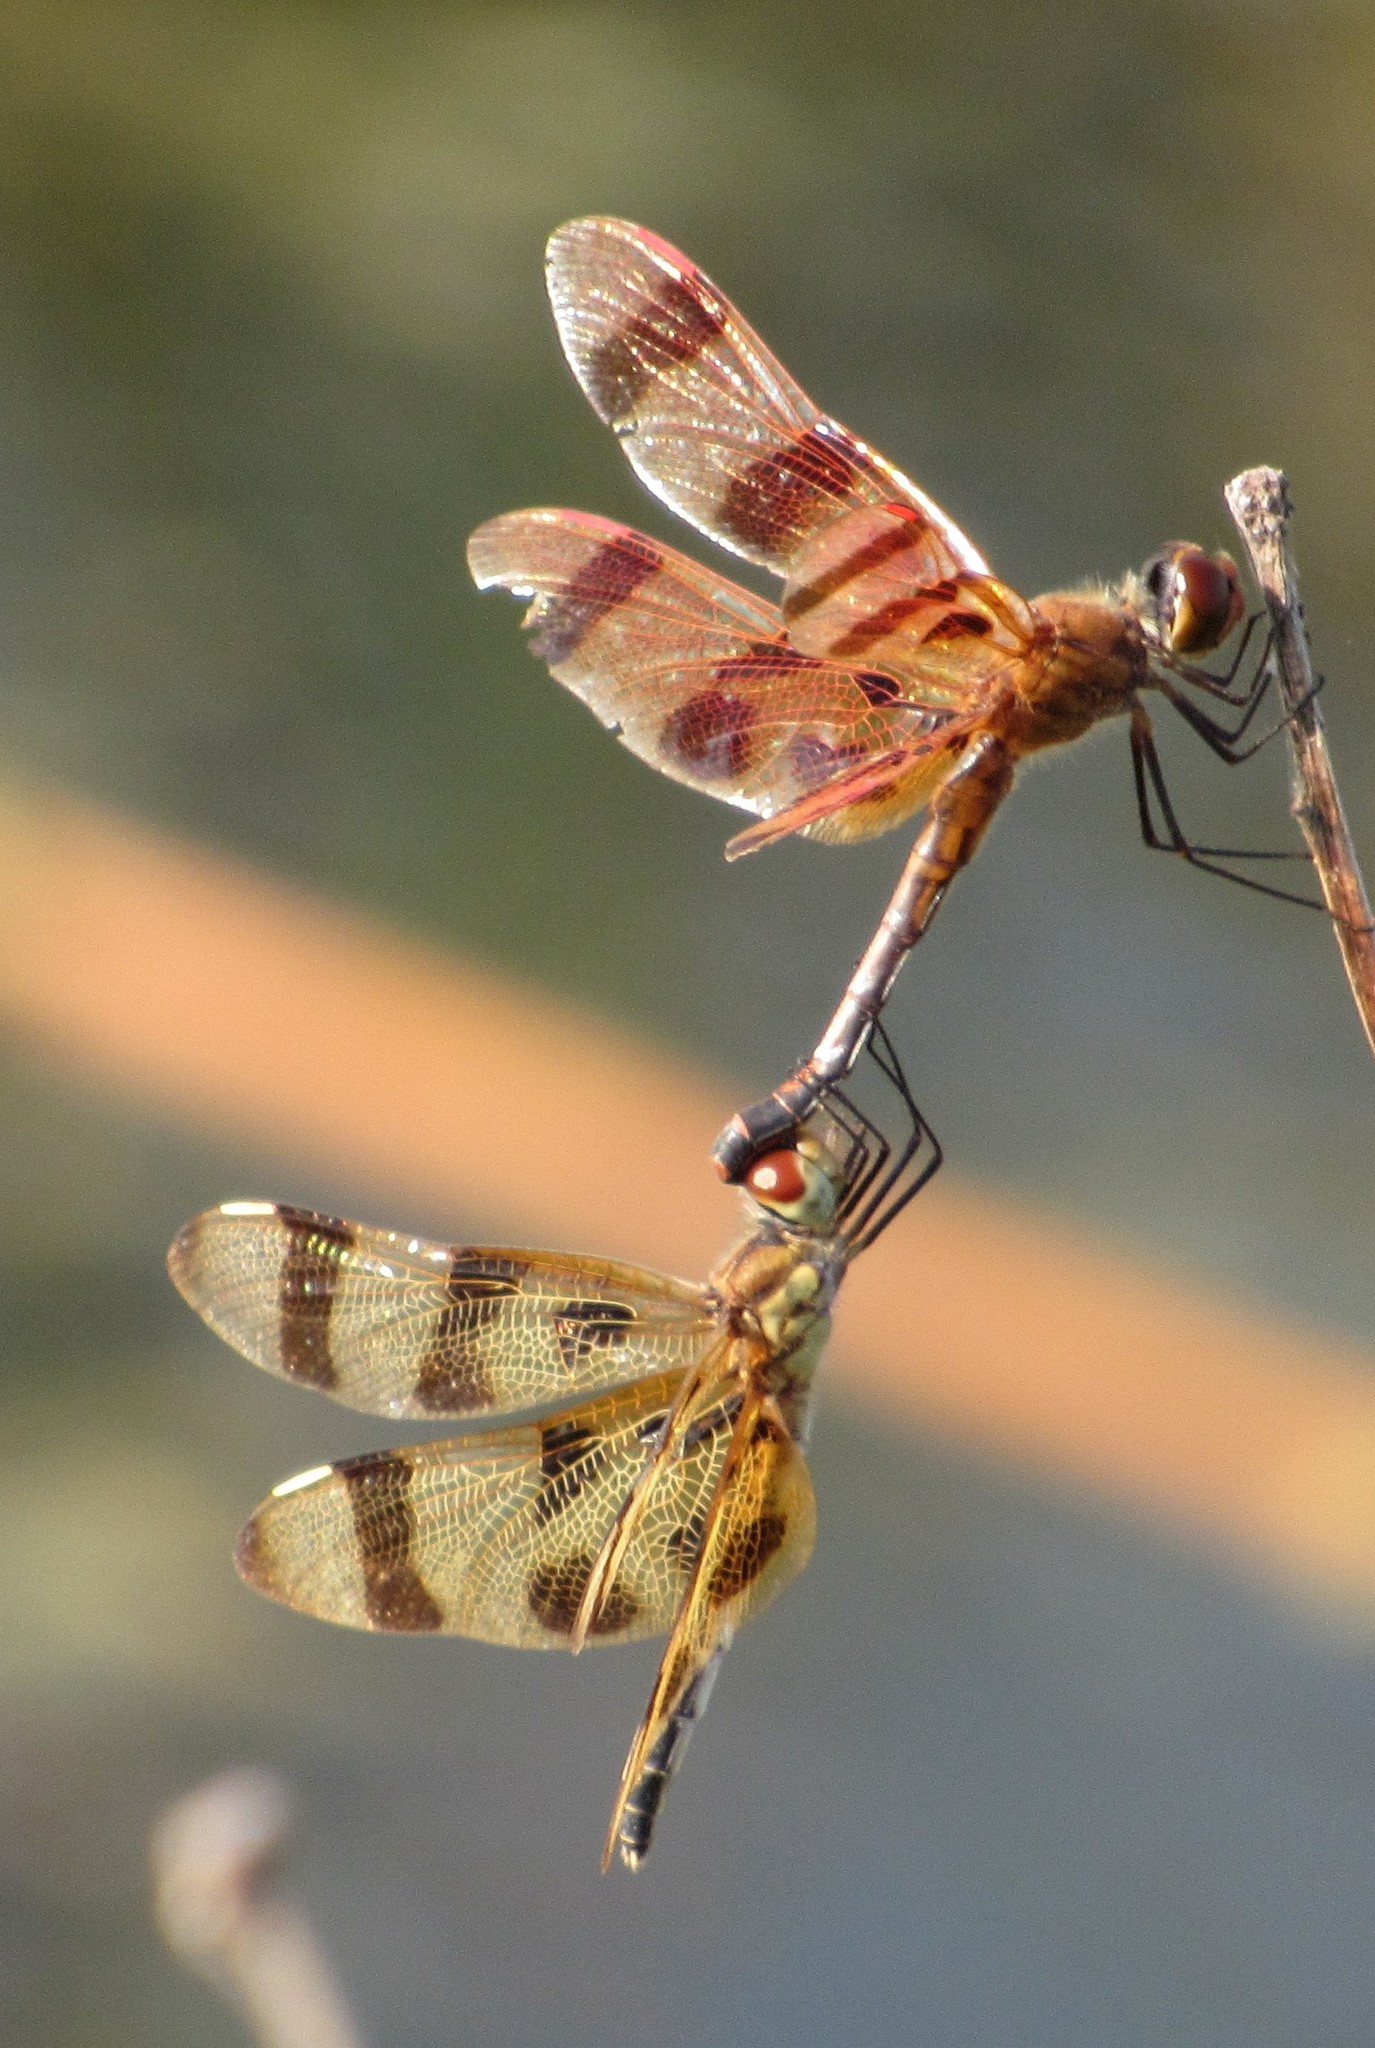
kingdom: Animalia
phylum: Arthropoda
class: Insecta
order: Odonata
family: Libellulidae
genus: Celithemis
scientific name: Celithemis eponina
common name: Halloween pennant
